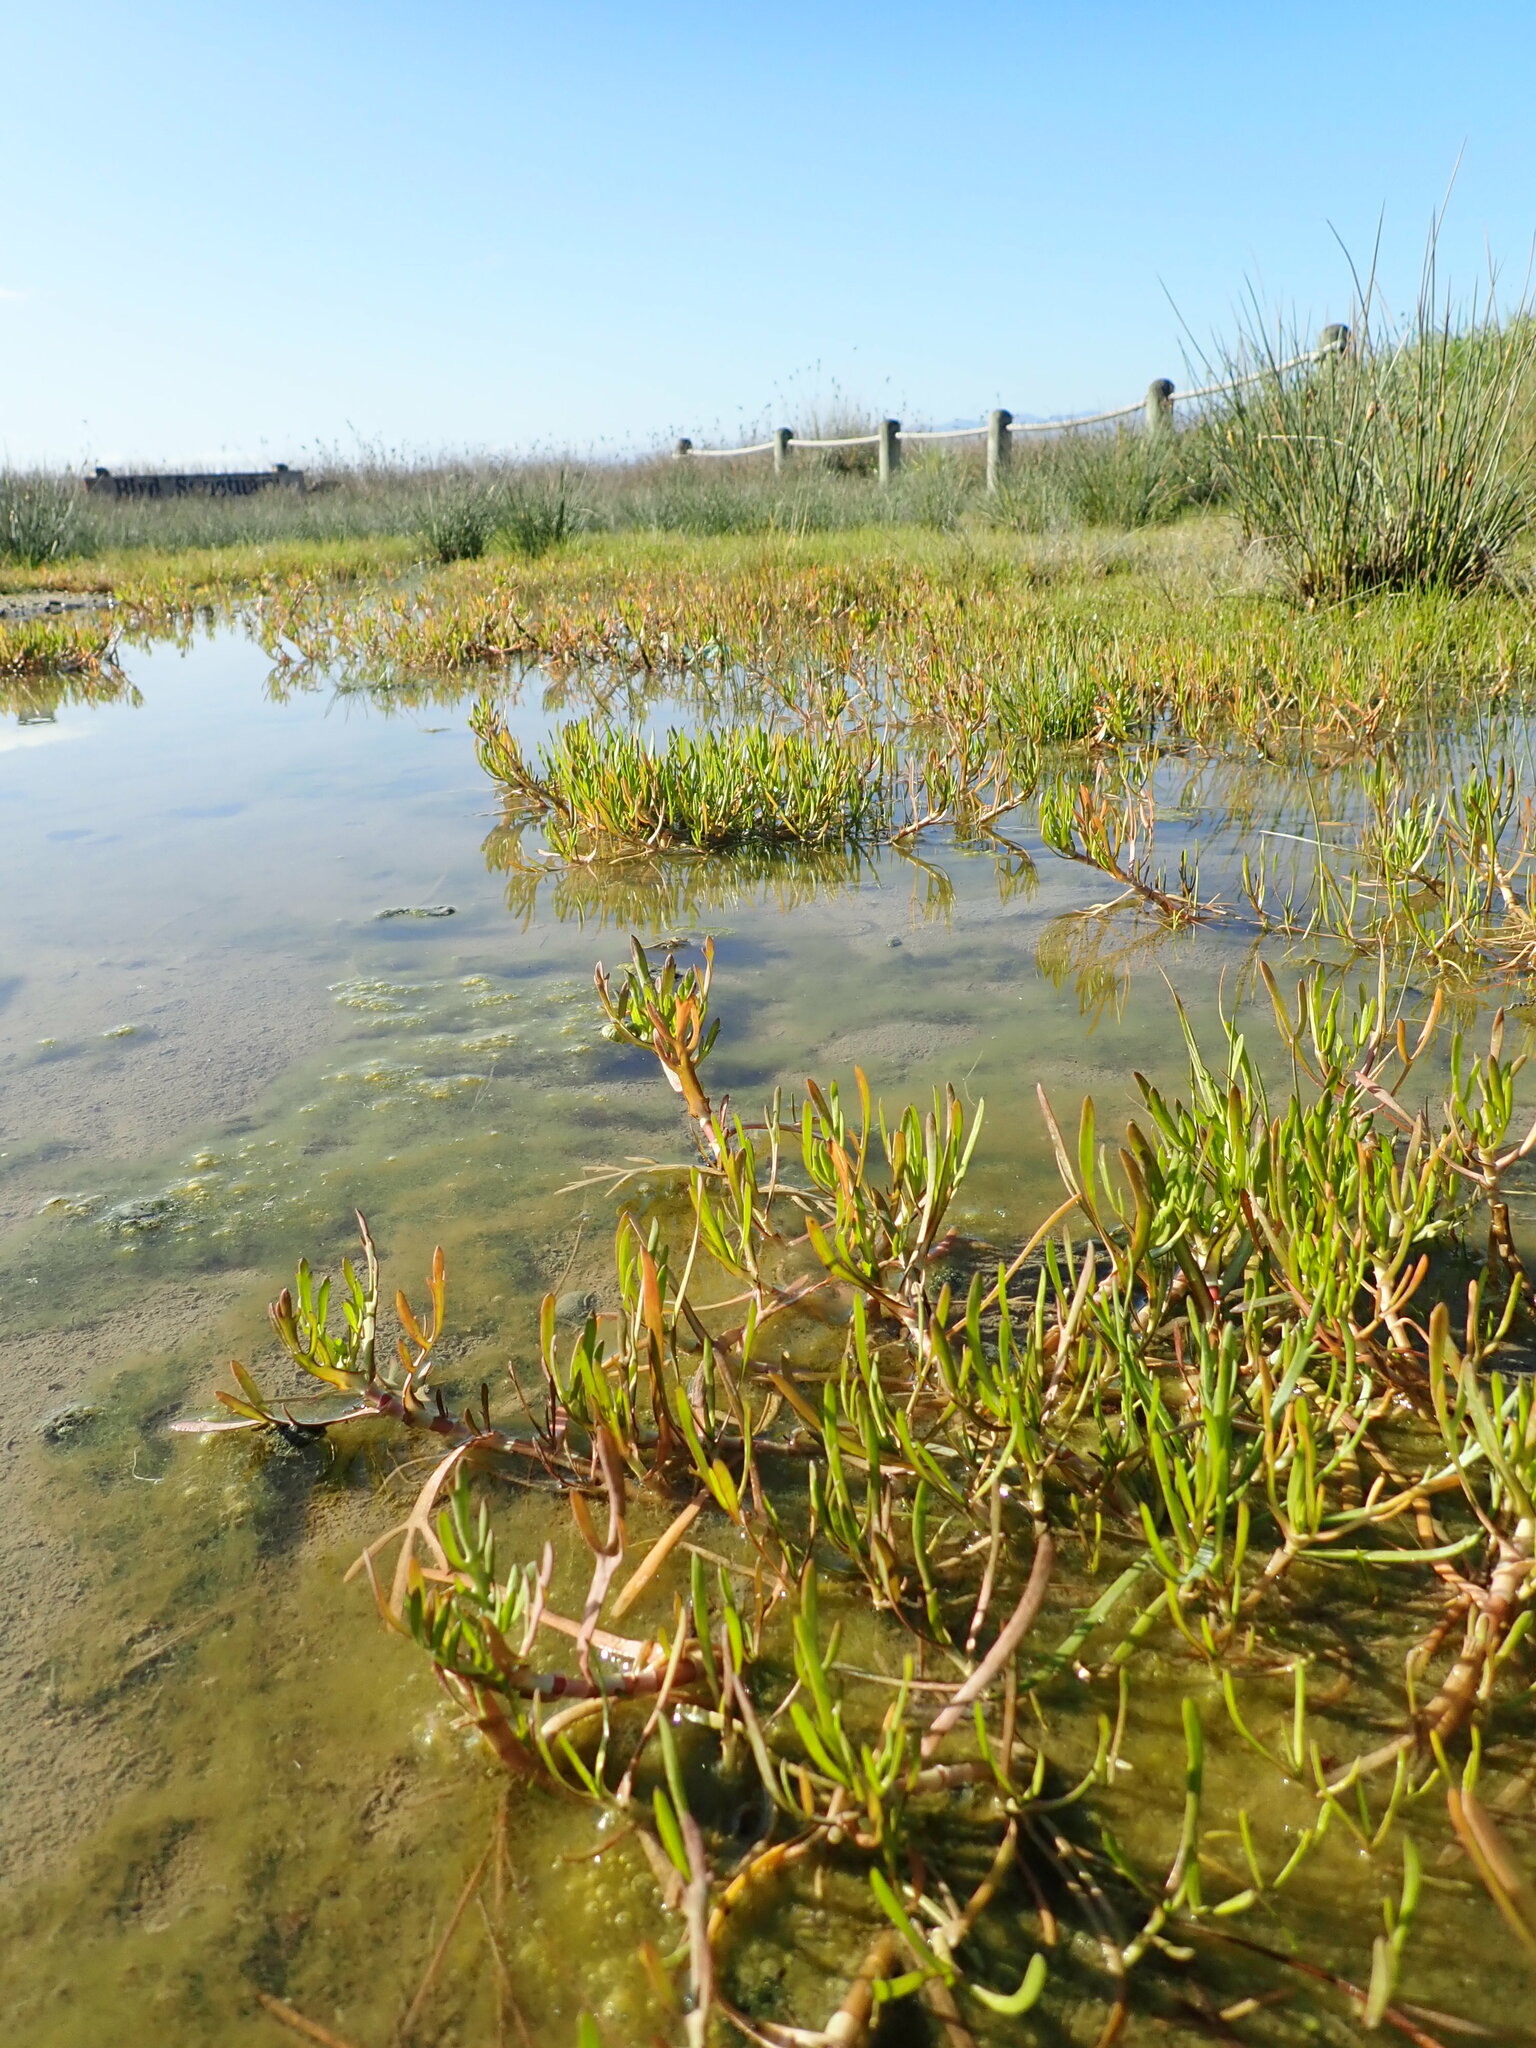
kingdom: Plantae
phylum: Tracheophyta
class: Magnoliopsida
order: Asterales
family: Asteraceae
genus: Cotula
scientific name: Cotula coronopifolia
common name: Buttonweed
